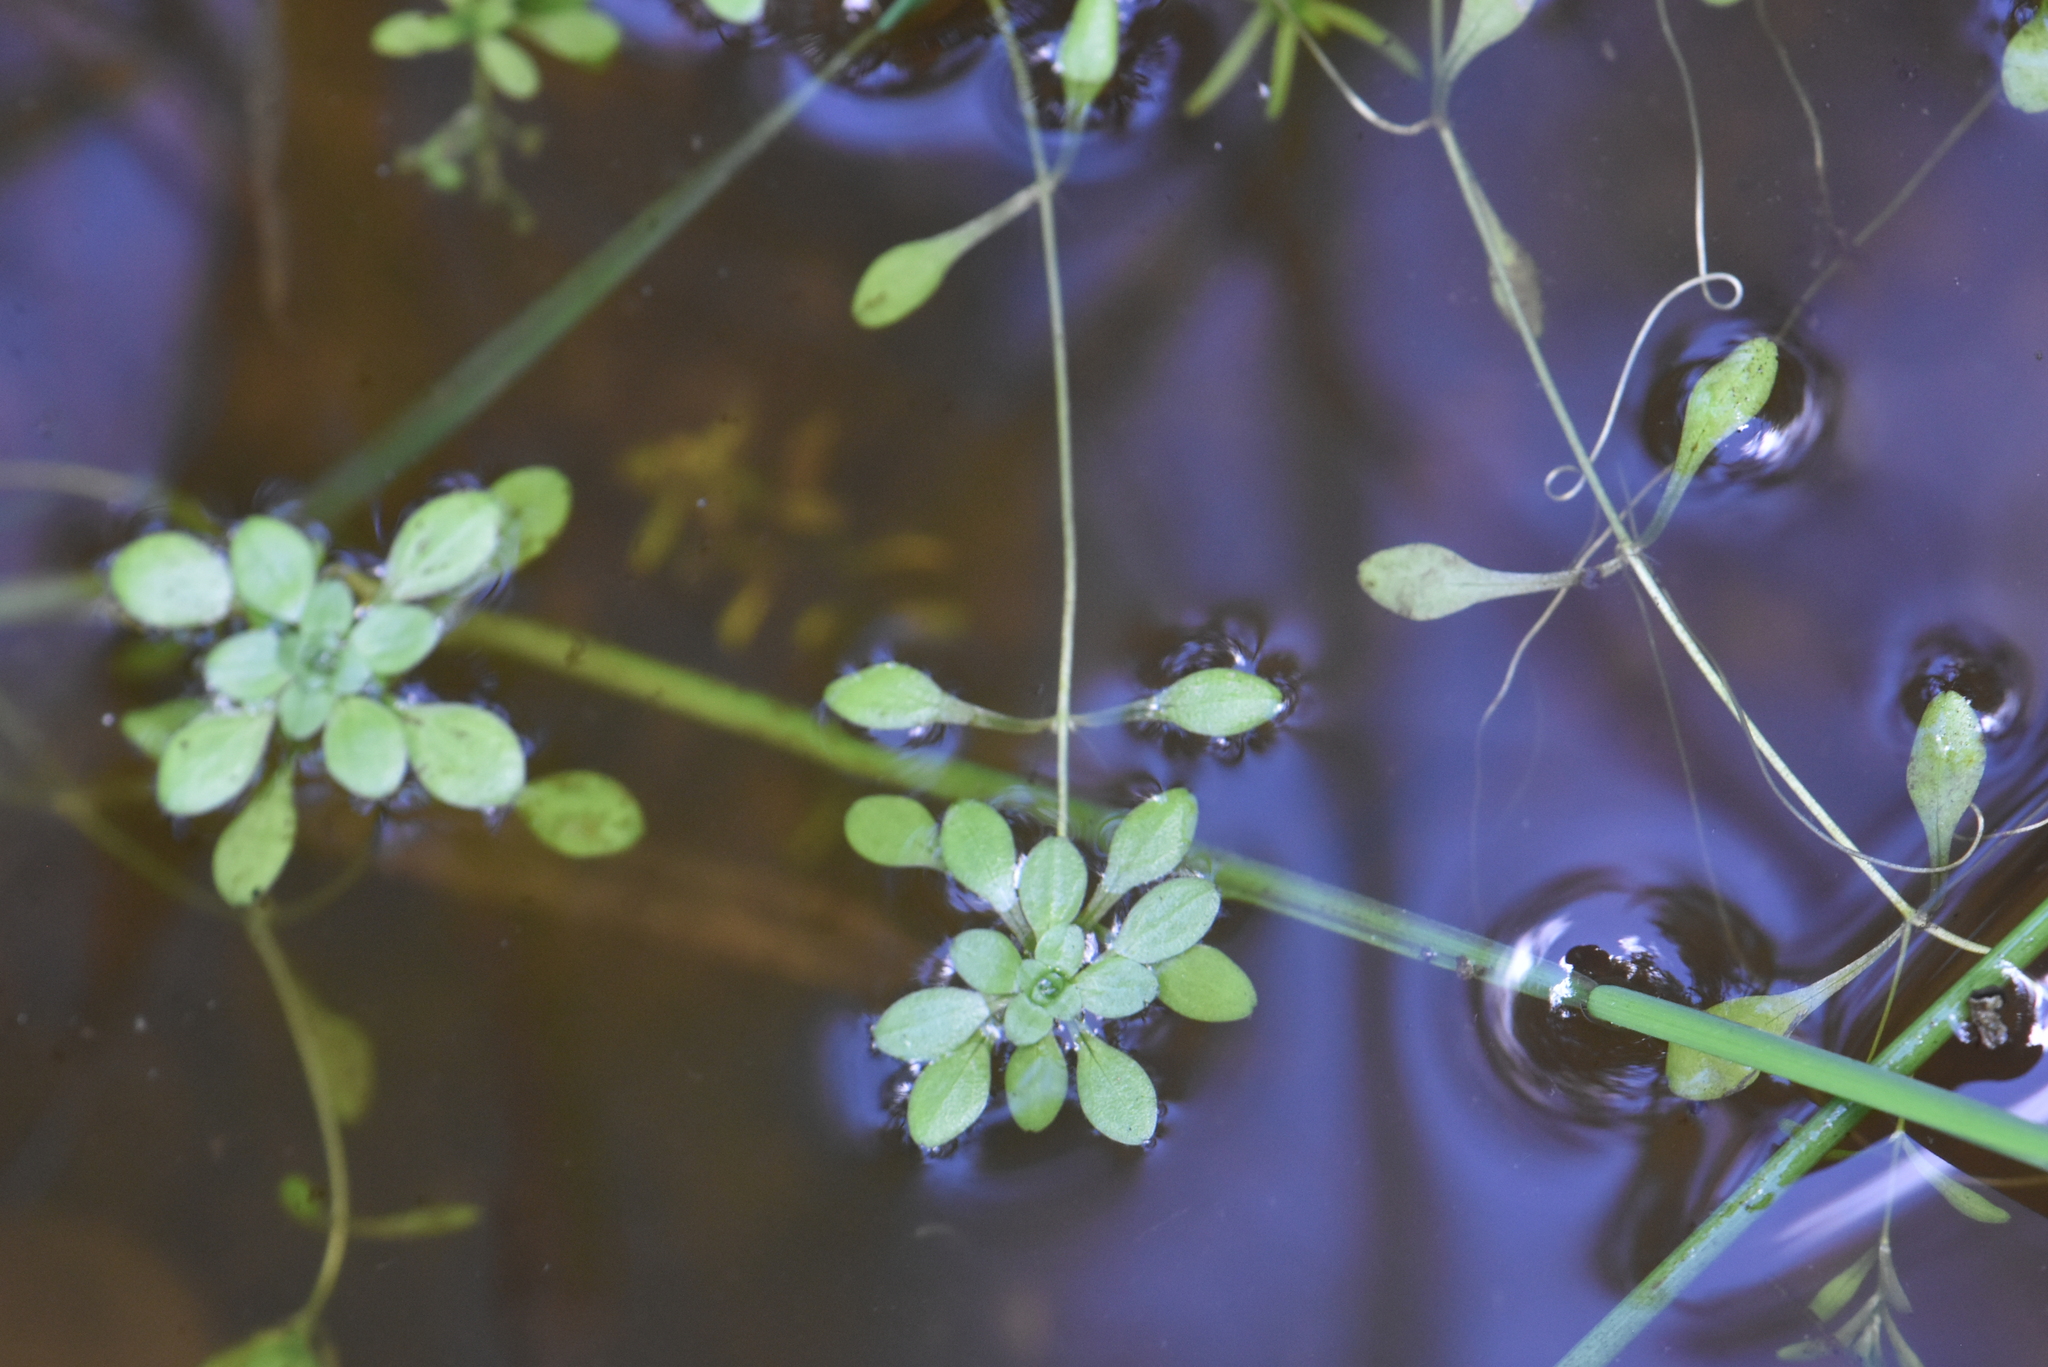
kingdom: Plantae
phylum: Tracheophyta
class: Magnoliopsida
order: Lamiales
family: Plantaginaceae
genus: Callitriche
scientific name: Callitriche
